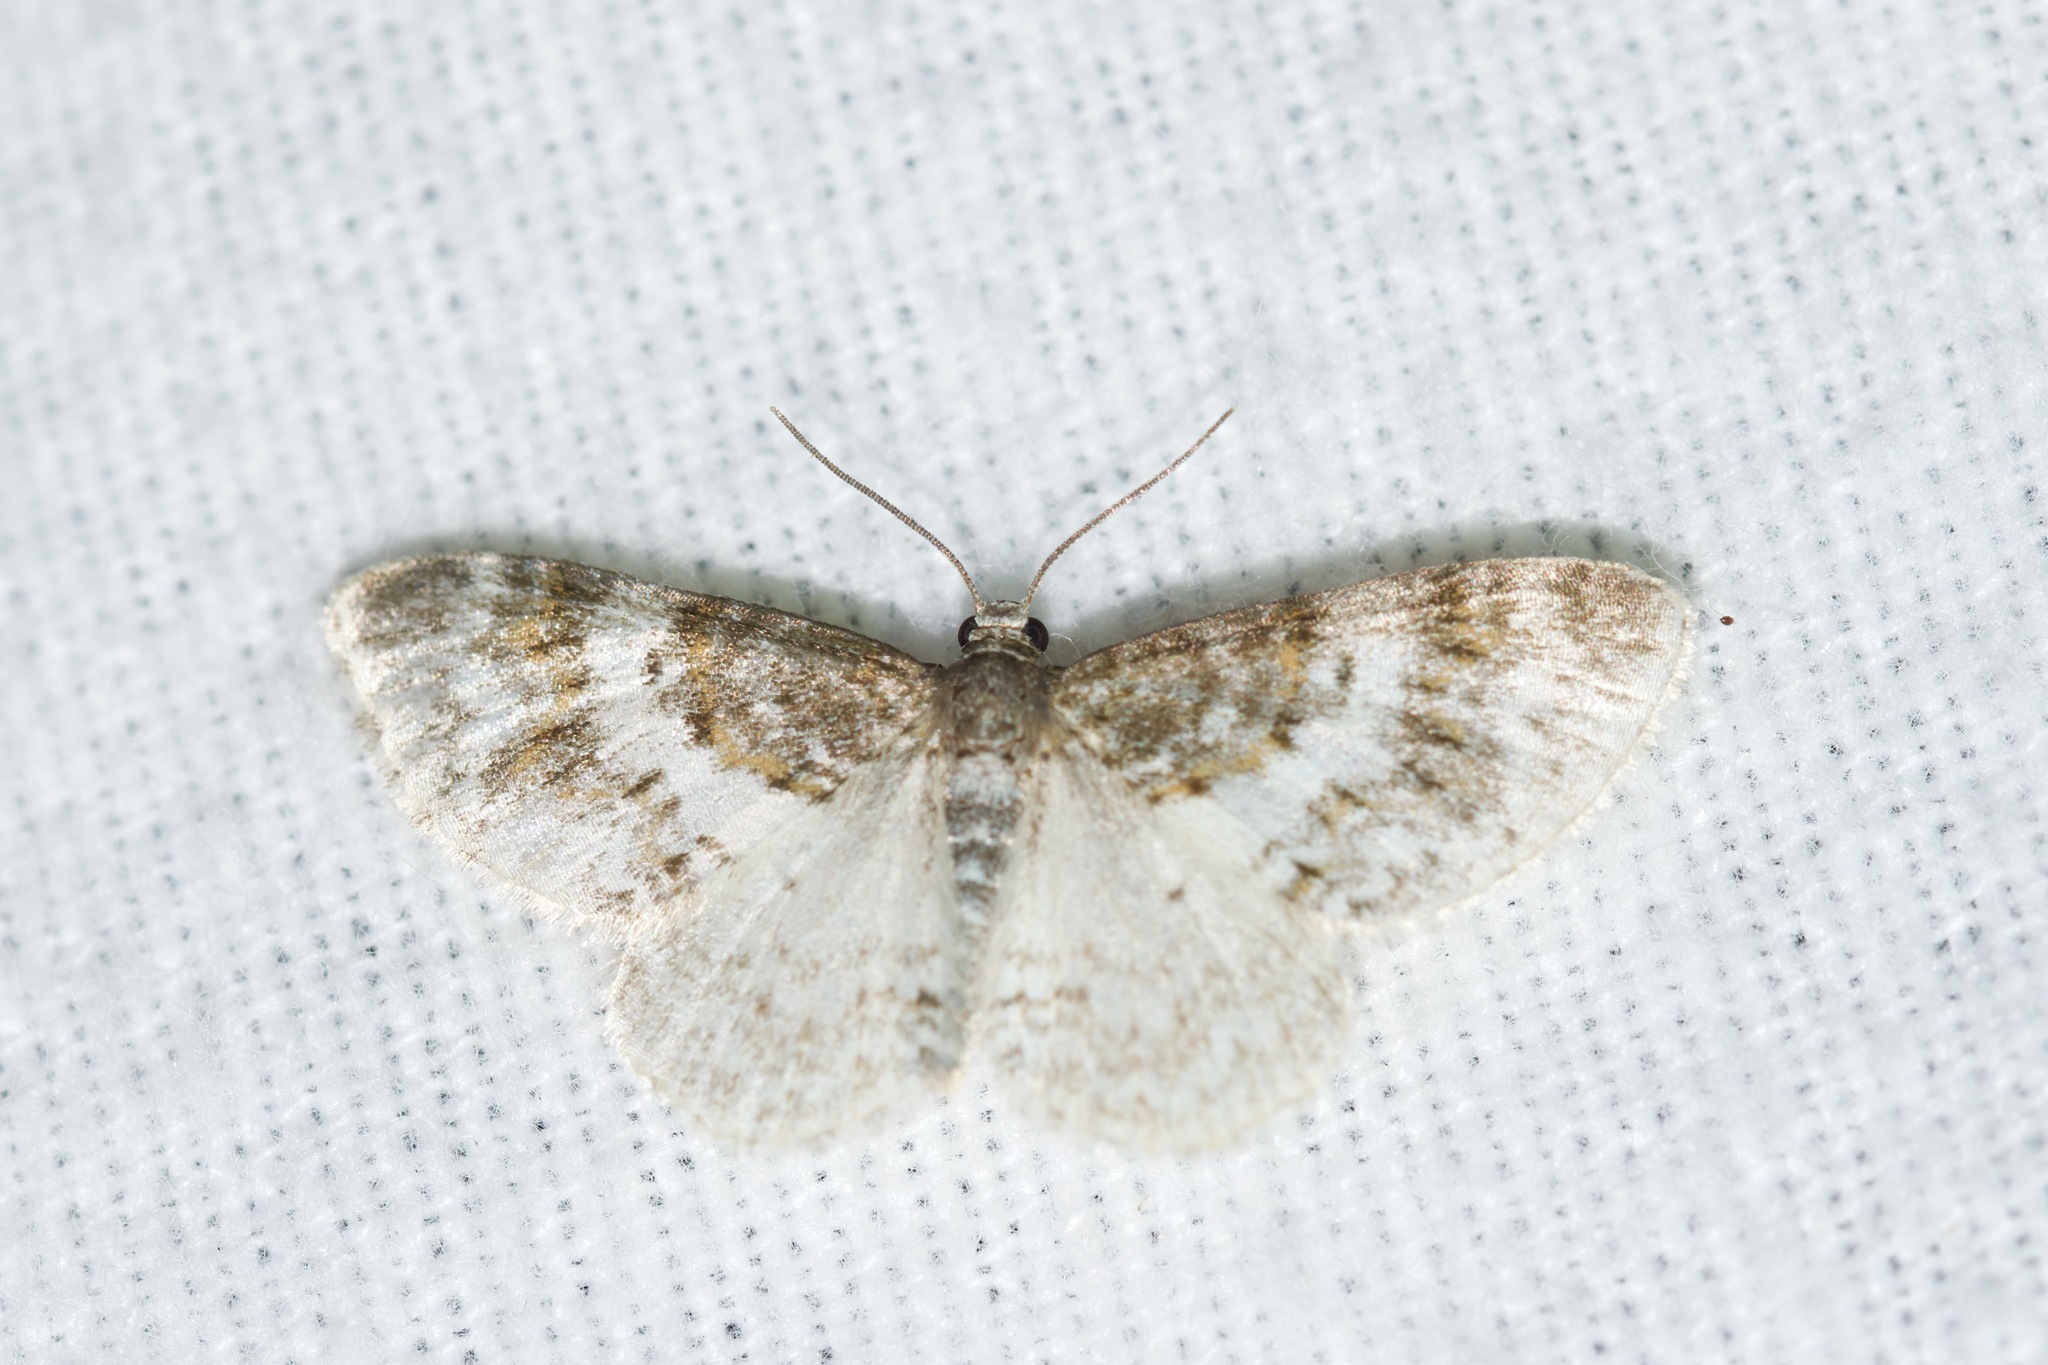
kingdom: Animalia
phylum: Arthropoda
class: Insecta
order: Lepidoptera
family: Geometridae
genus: Hydrelia
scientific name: Hydrelia inornata
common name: Unadorned carpet moth
